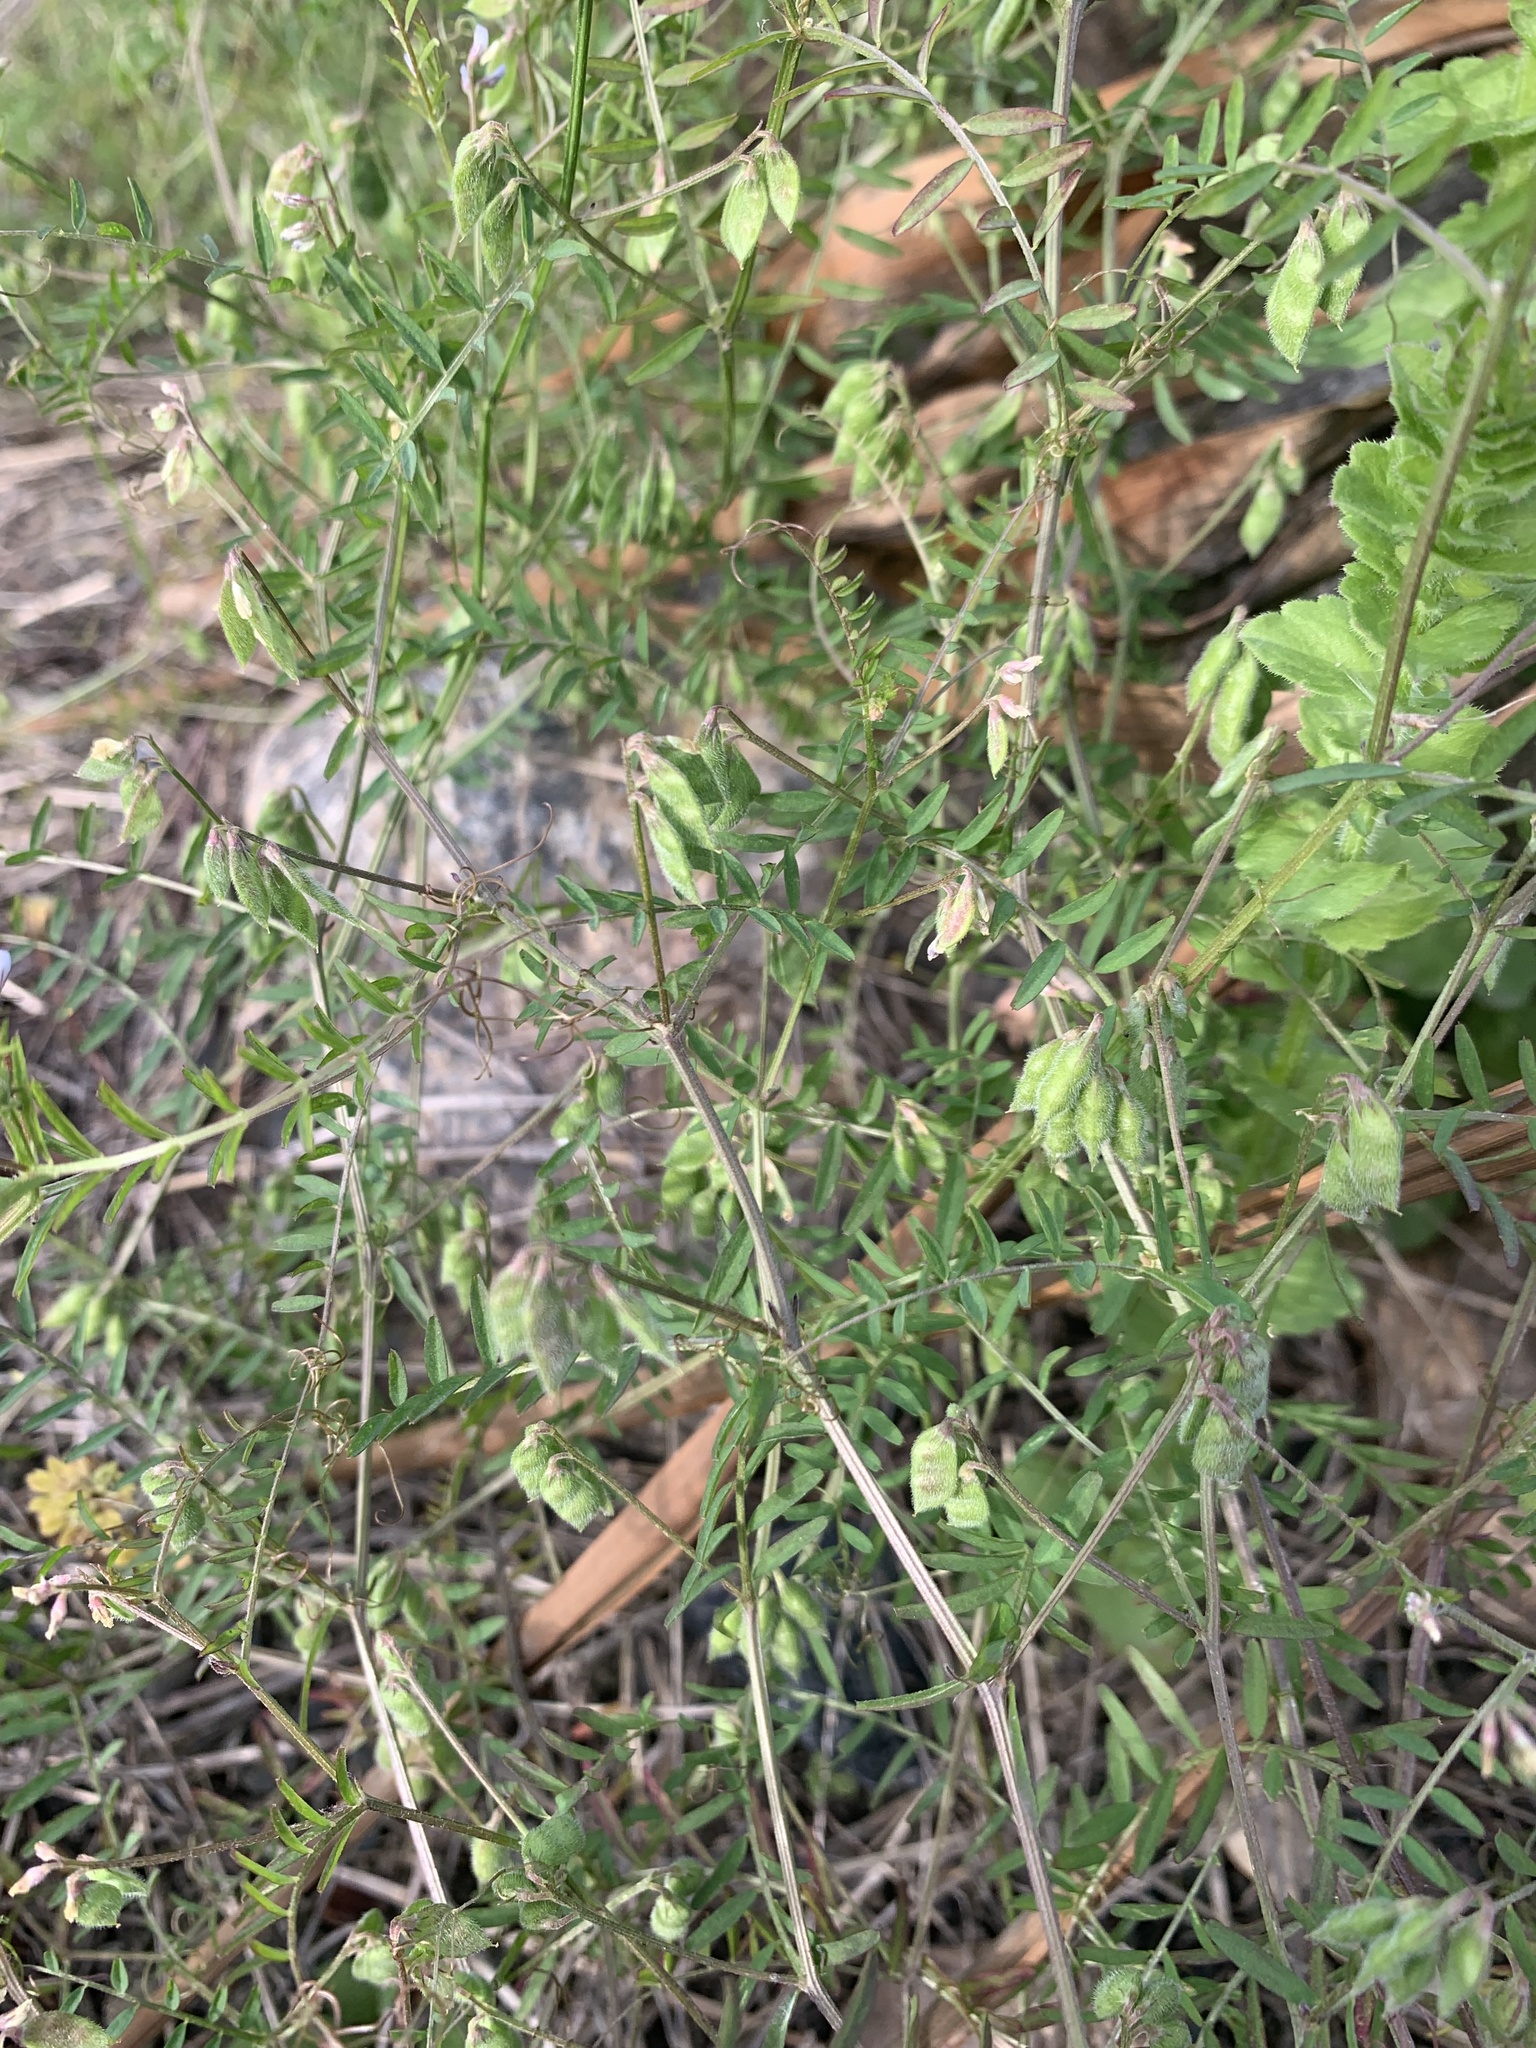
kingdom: Plantae
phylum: Tracheophyta
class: Magnoliopsida
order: Fabales
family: Fabaceae
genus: Vicia
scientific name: Vicia hirsuta
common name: Tiny vetch
